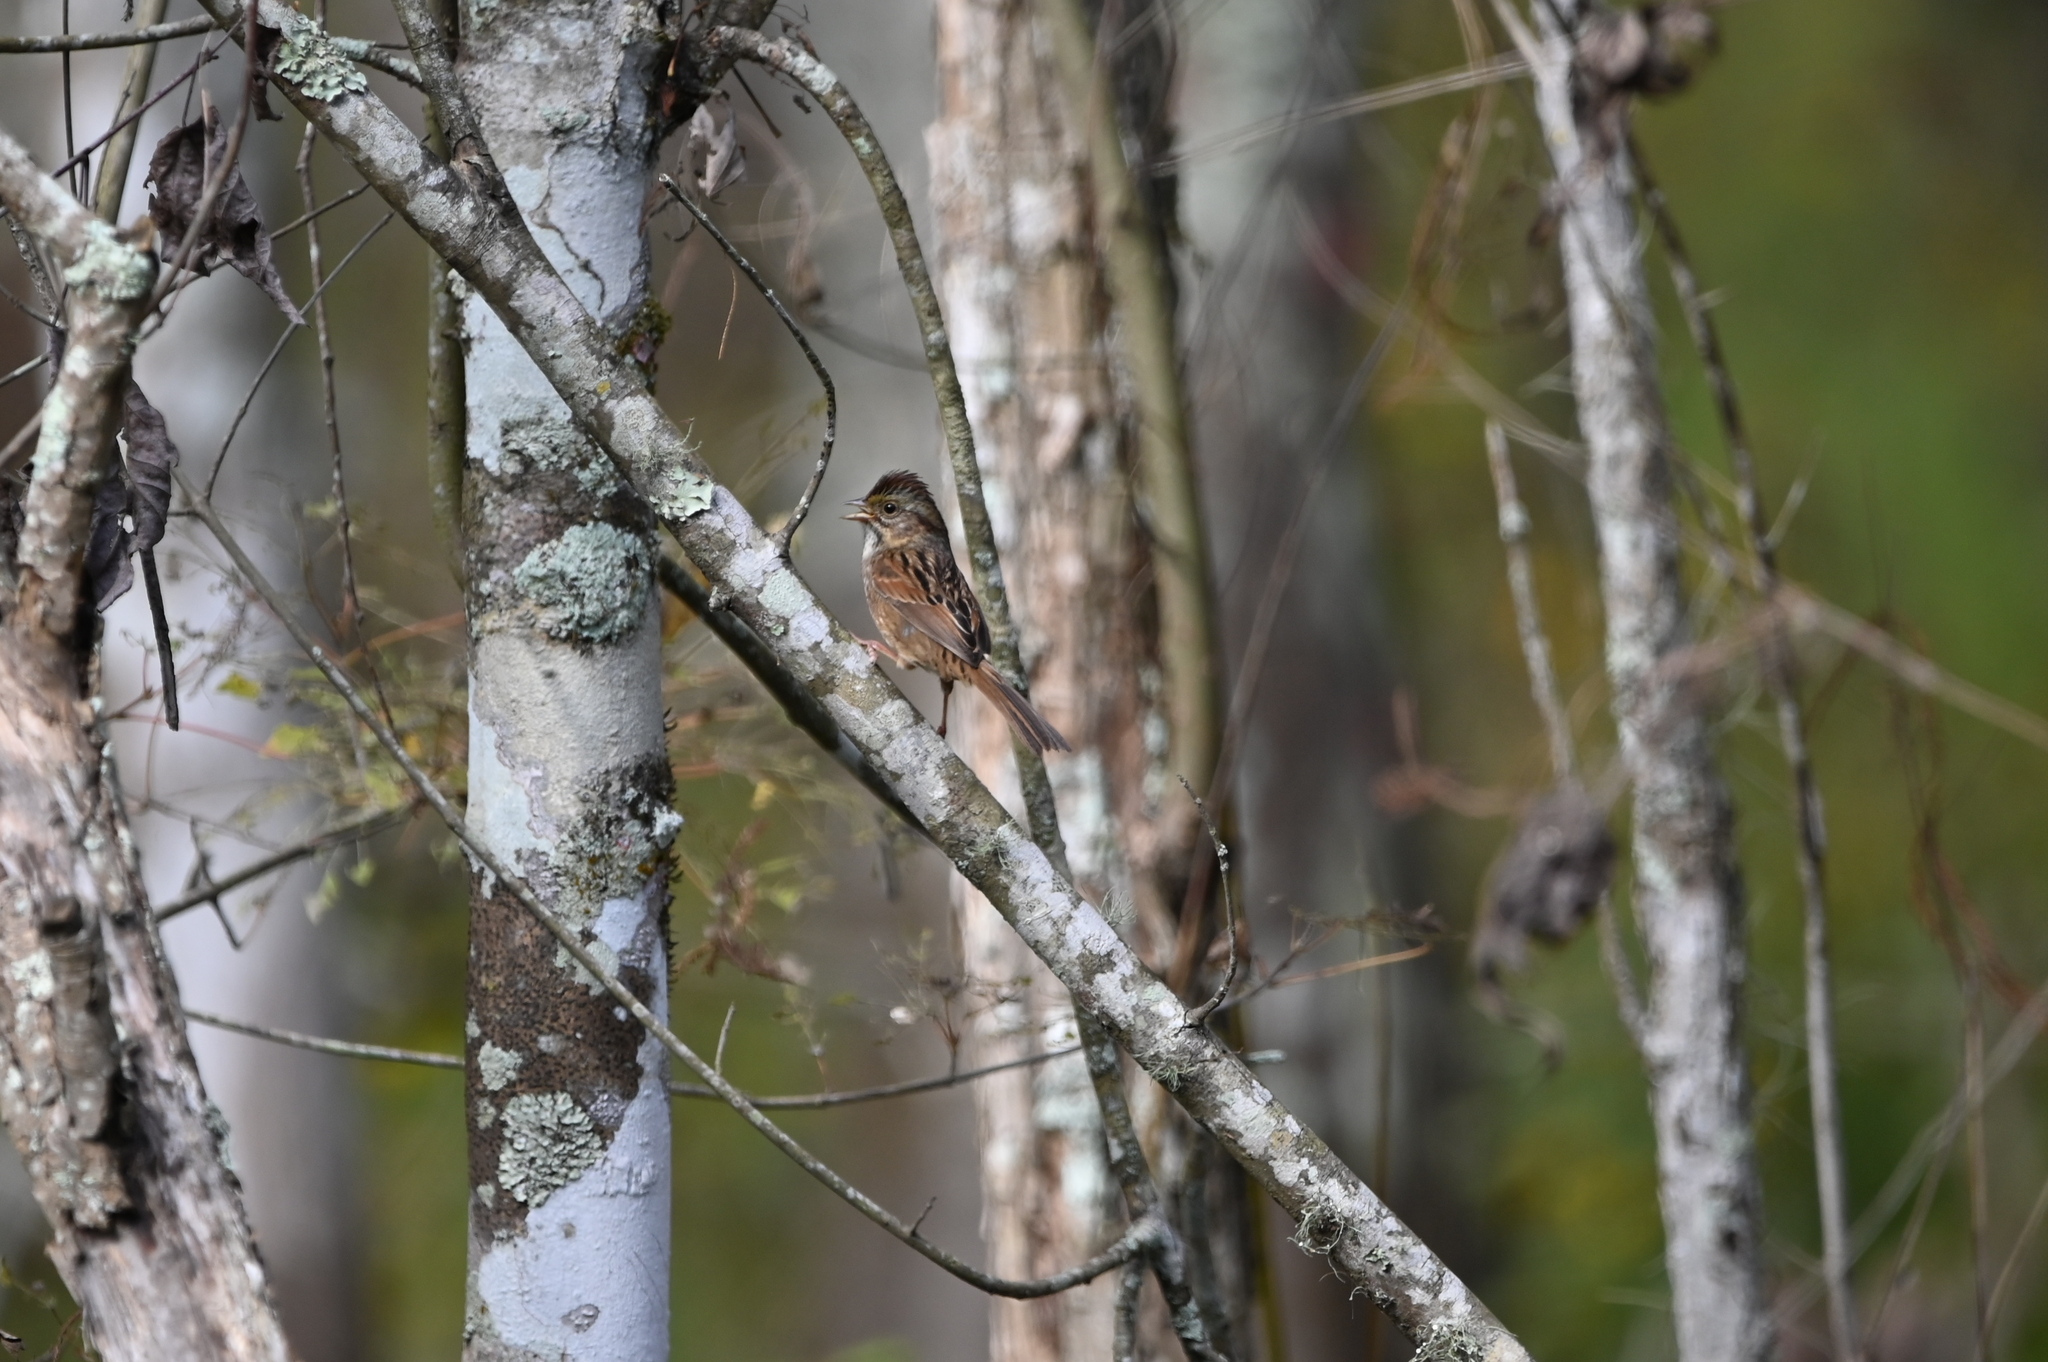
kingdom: Animalia
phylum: Chordata
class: Aves
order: Passeriformes
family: Passerellidae
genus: Melospiza
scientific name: Melospiza georgiana
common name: Swamp sparrow
